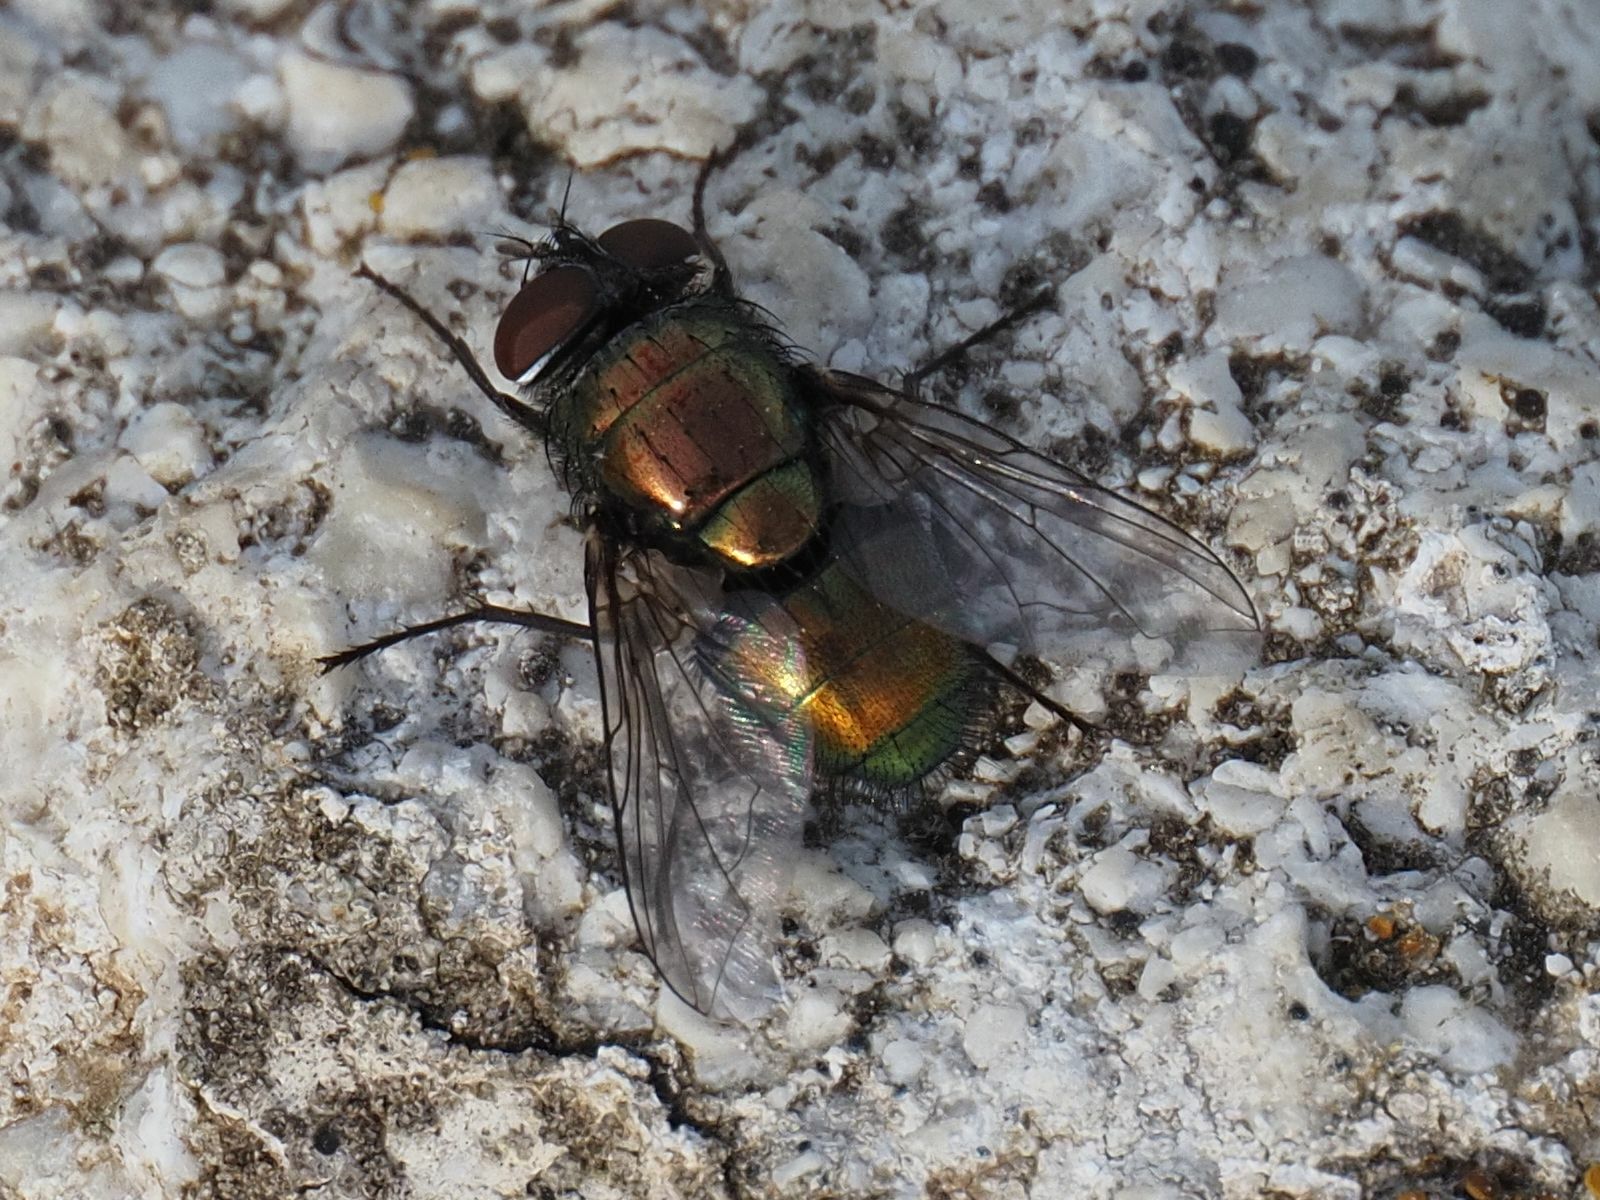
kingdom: Animalia
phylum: Arthropoda
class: Insecta
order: Diptera
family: Calliphoridae
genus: Lucilia
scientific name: Lucilia sericata
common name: Blow fly
